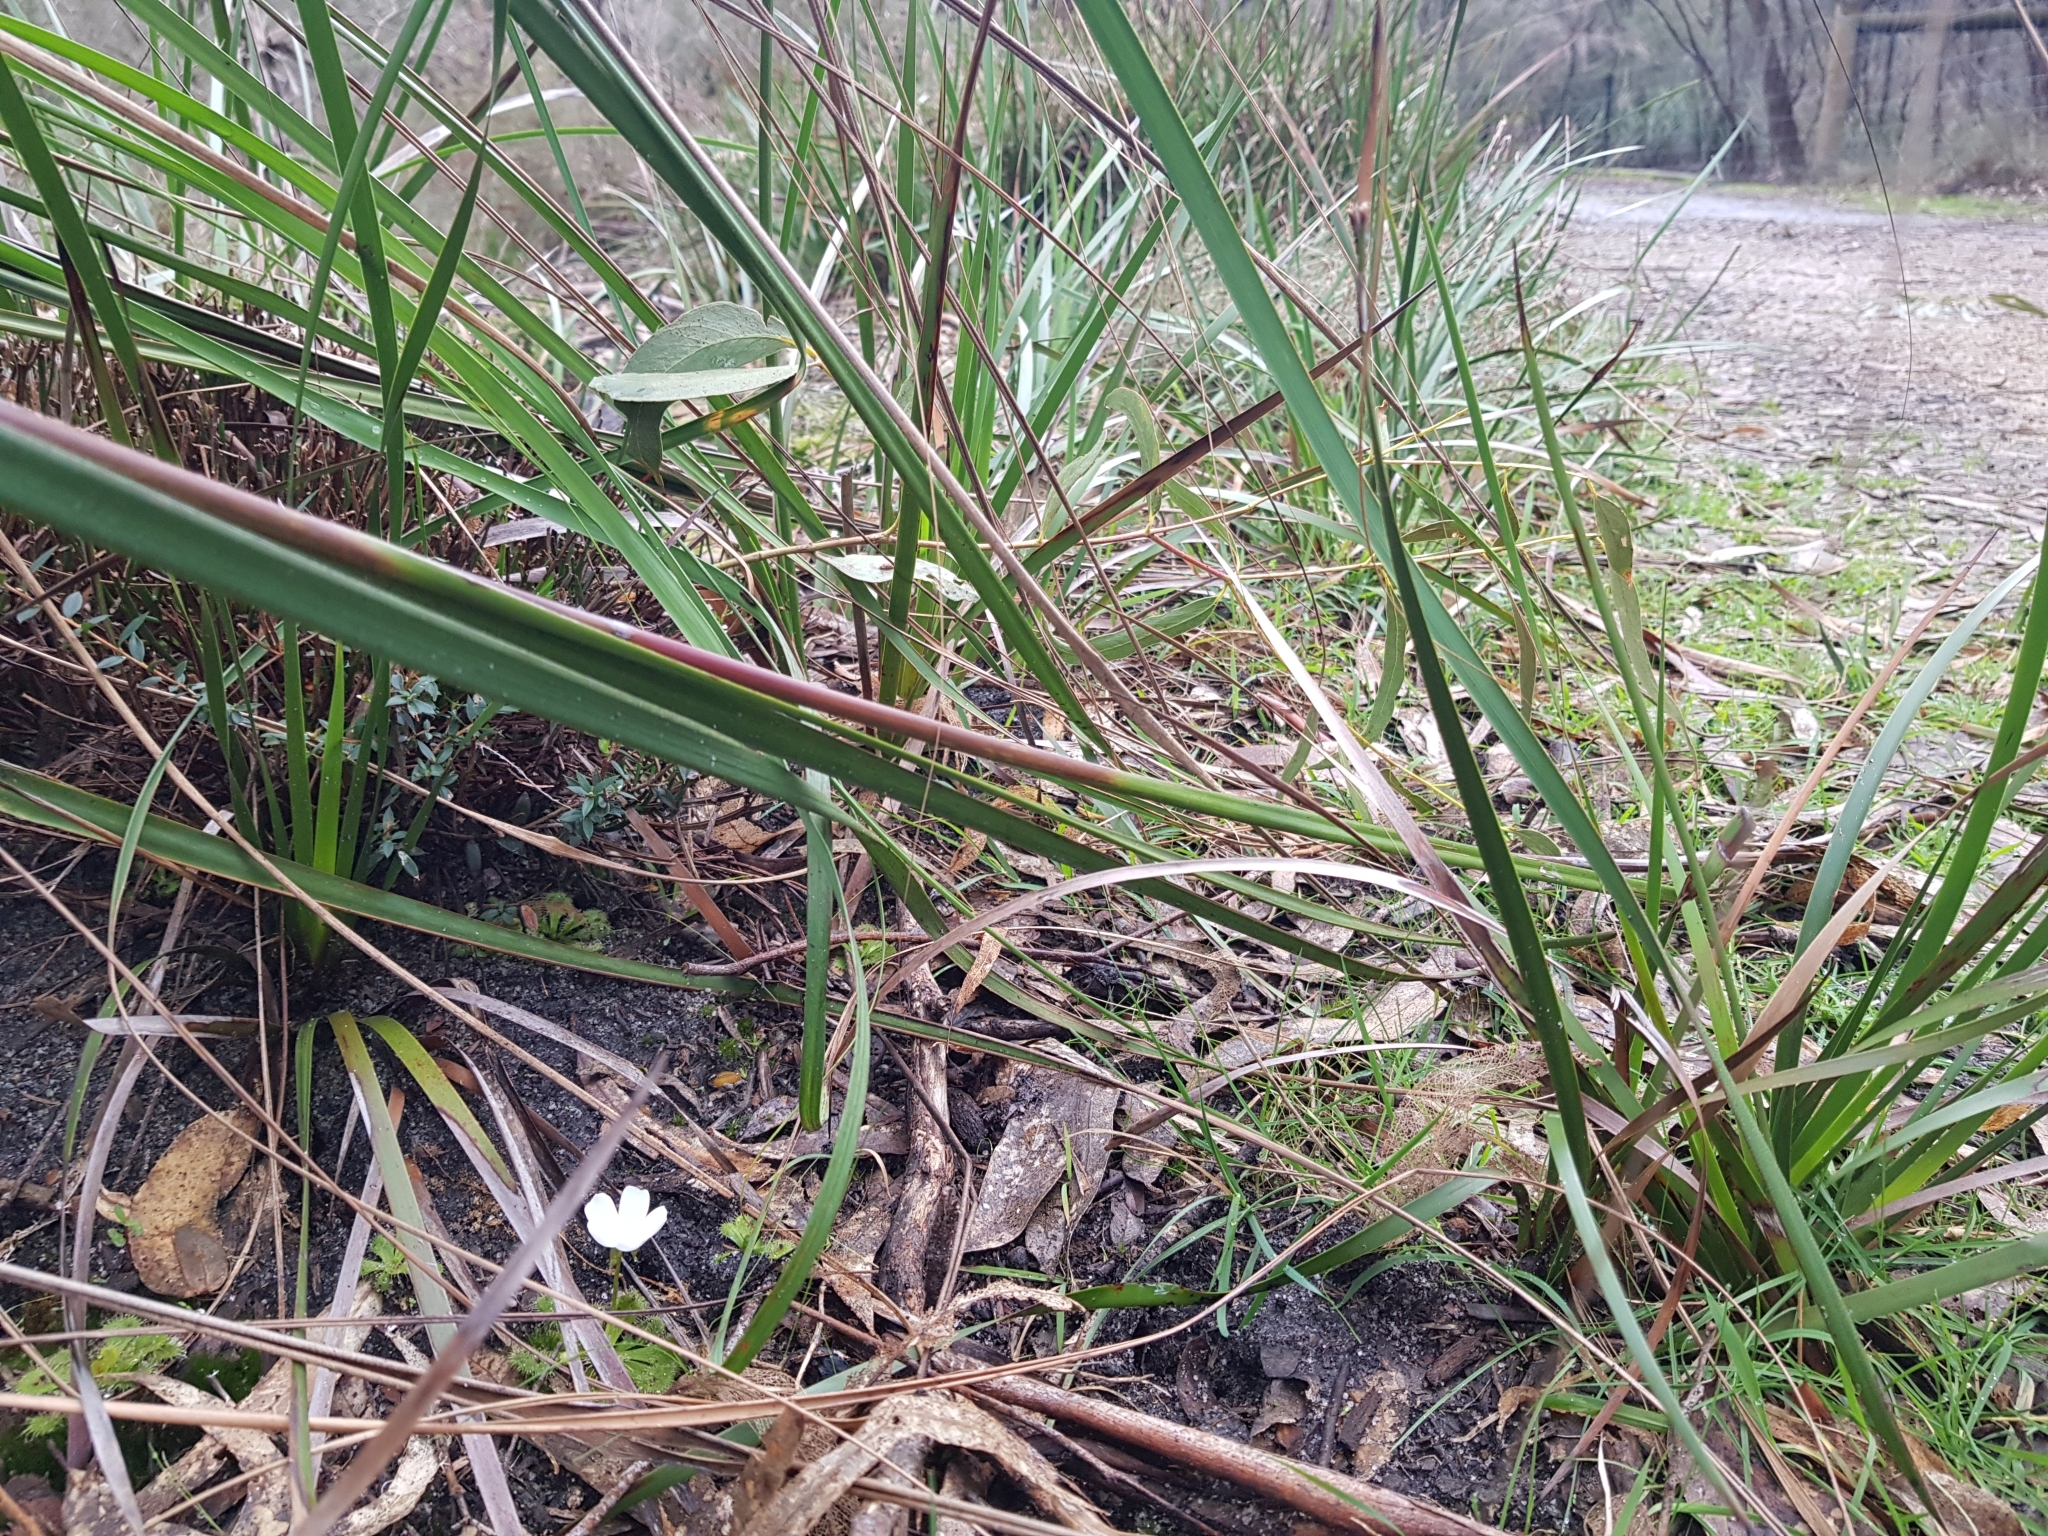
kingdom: Plantae
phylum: Tracheophyta
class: Magnoliopsida
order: Caryophyllales
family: Droseraceae
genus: Drosera
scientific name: Drosera aberrans
